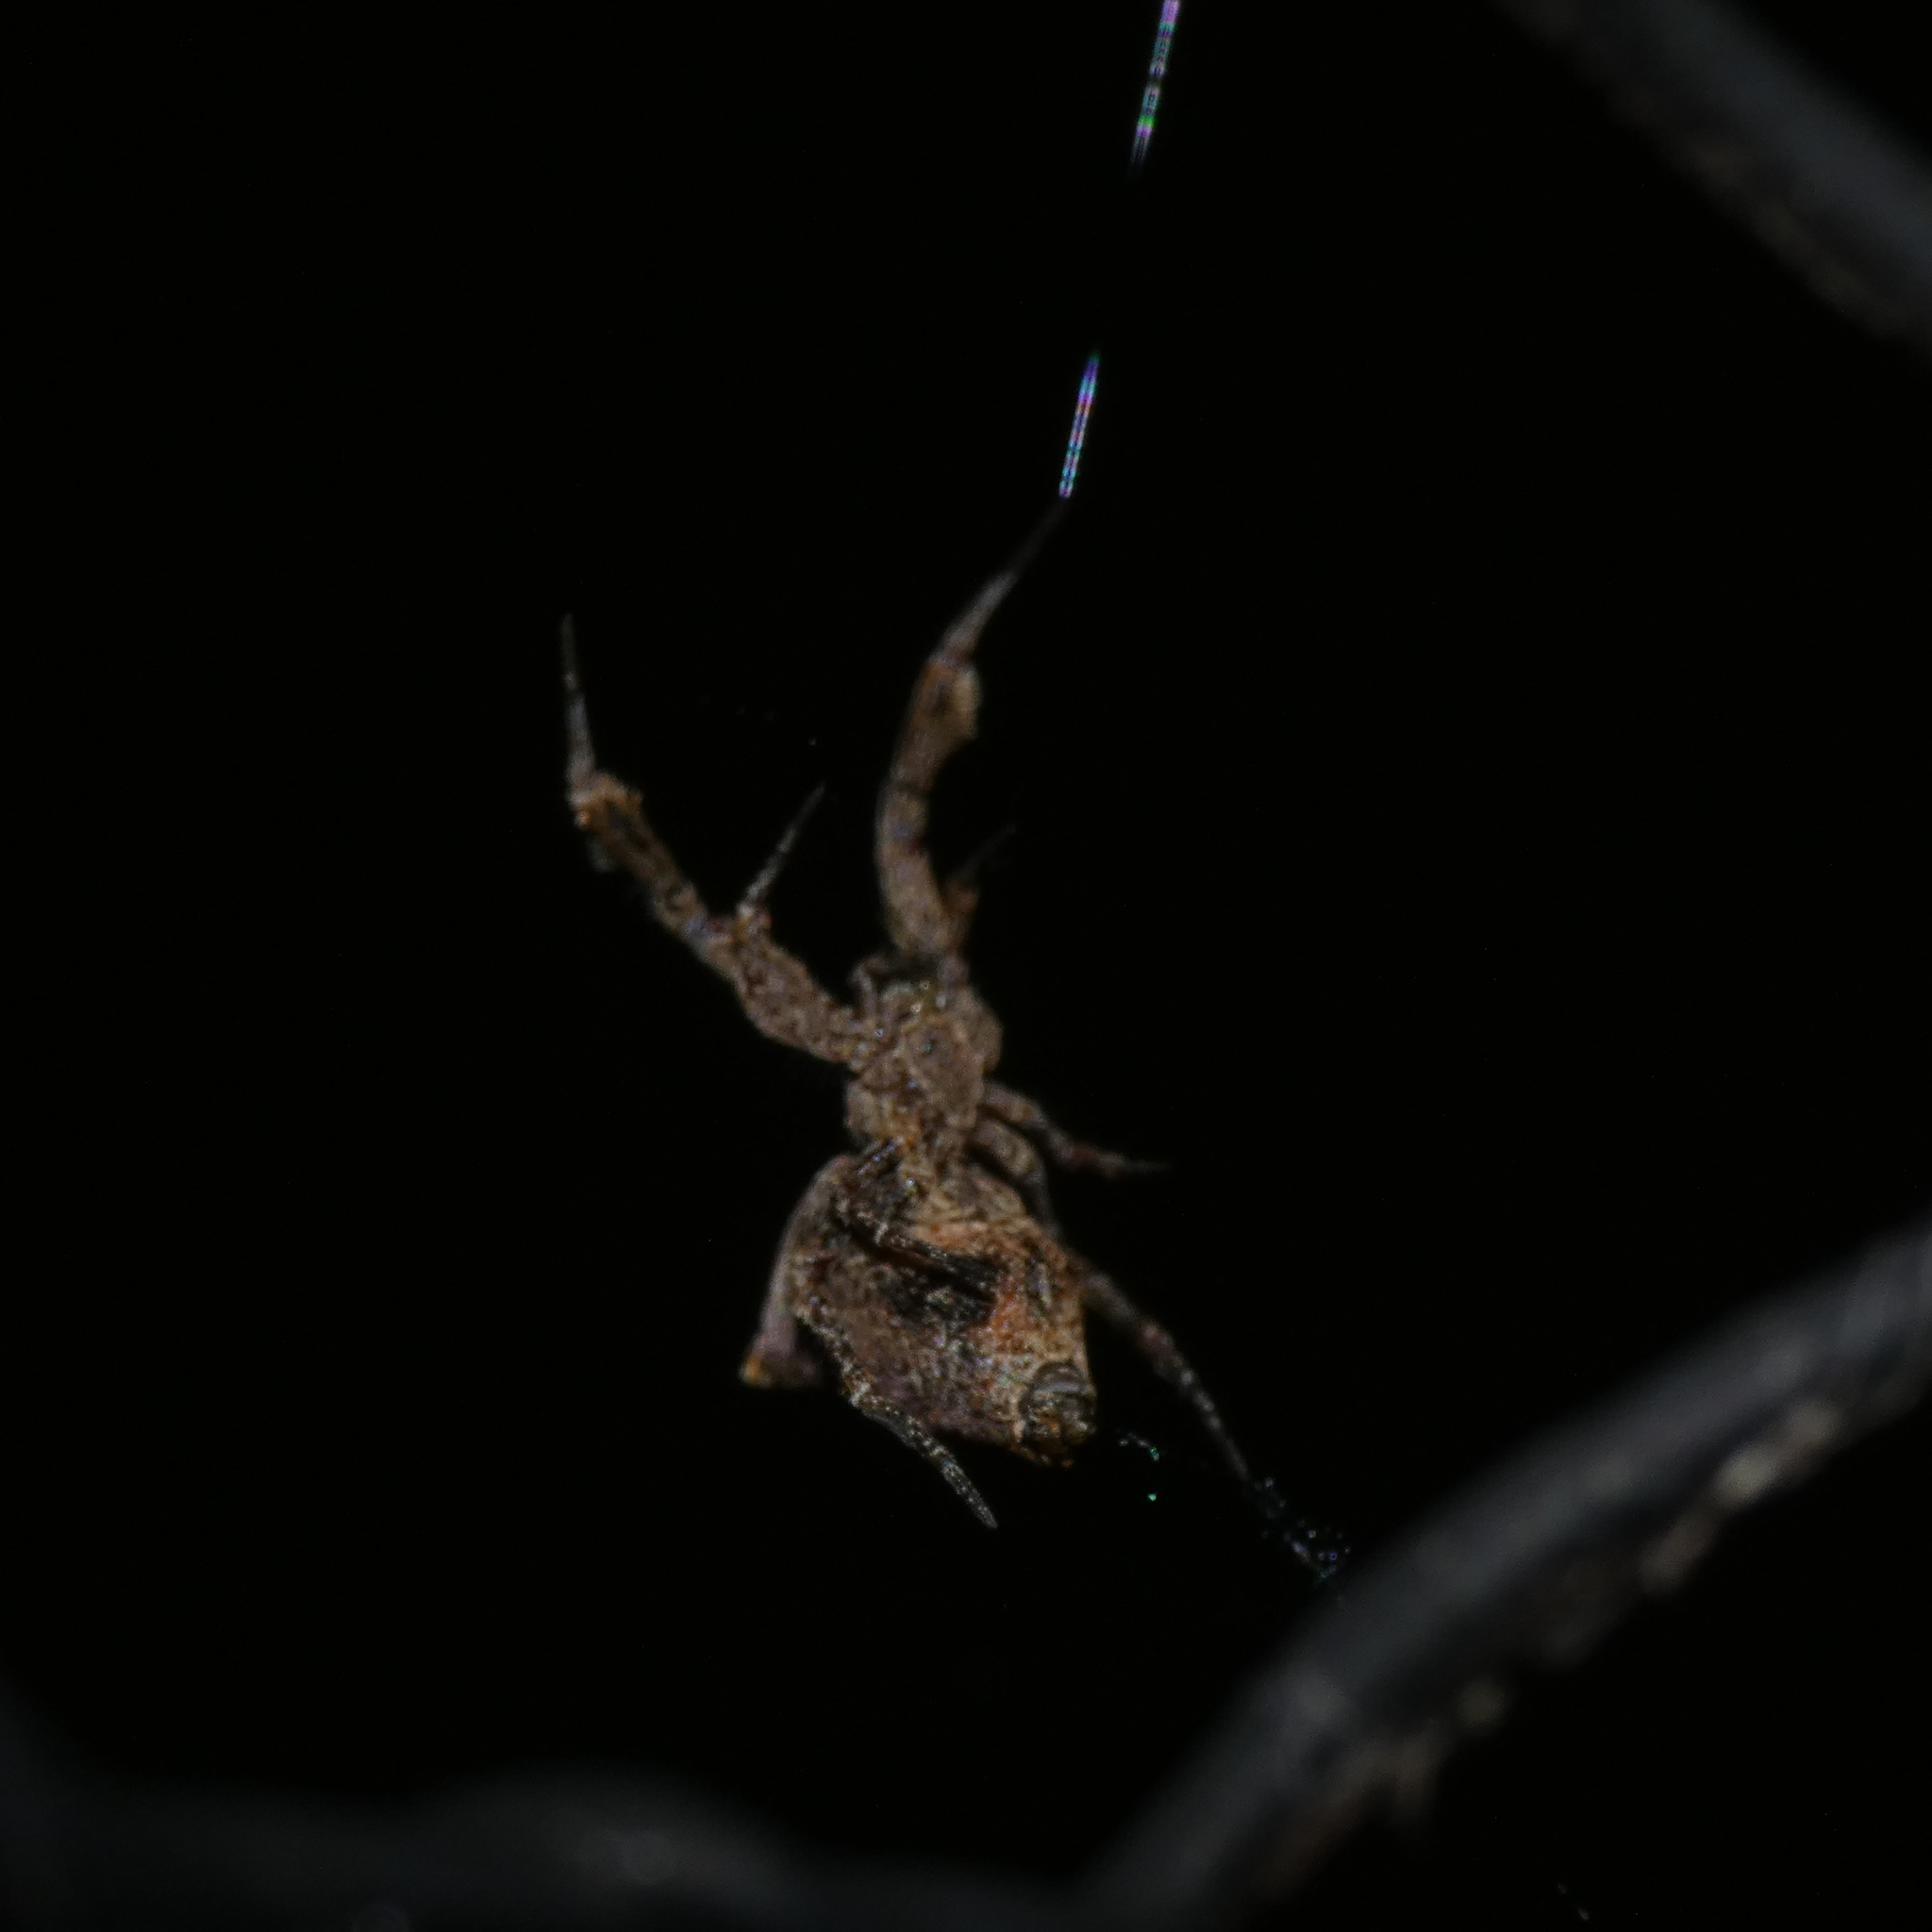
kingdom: Animalia
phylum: Arthropoda
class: Arachnida
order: Araneae
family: Uloboridae
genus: Uloborus
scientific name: Uloborus plumipes
